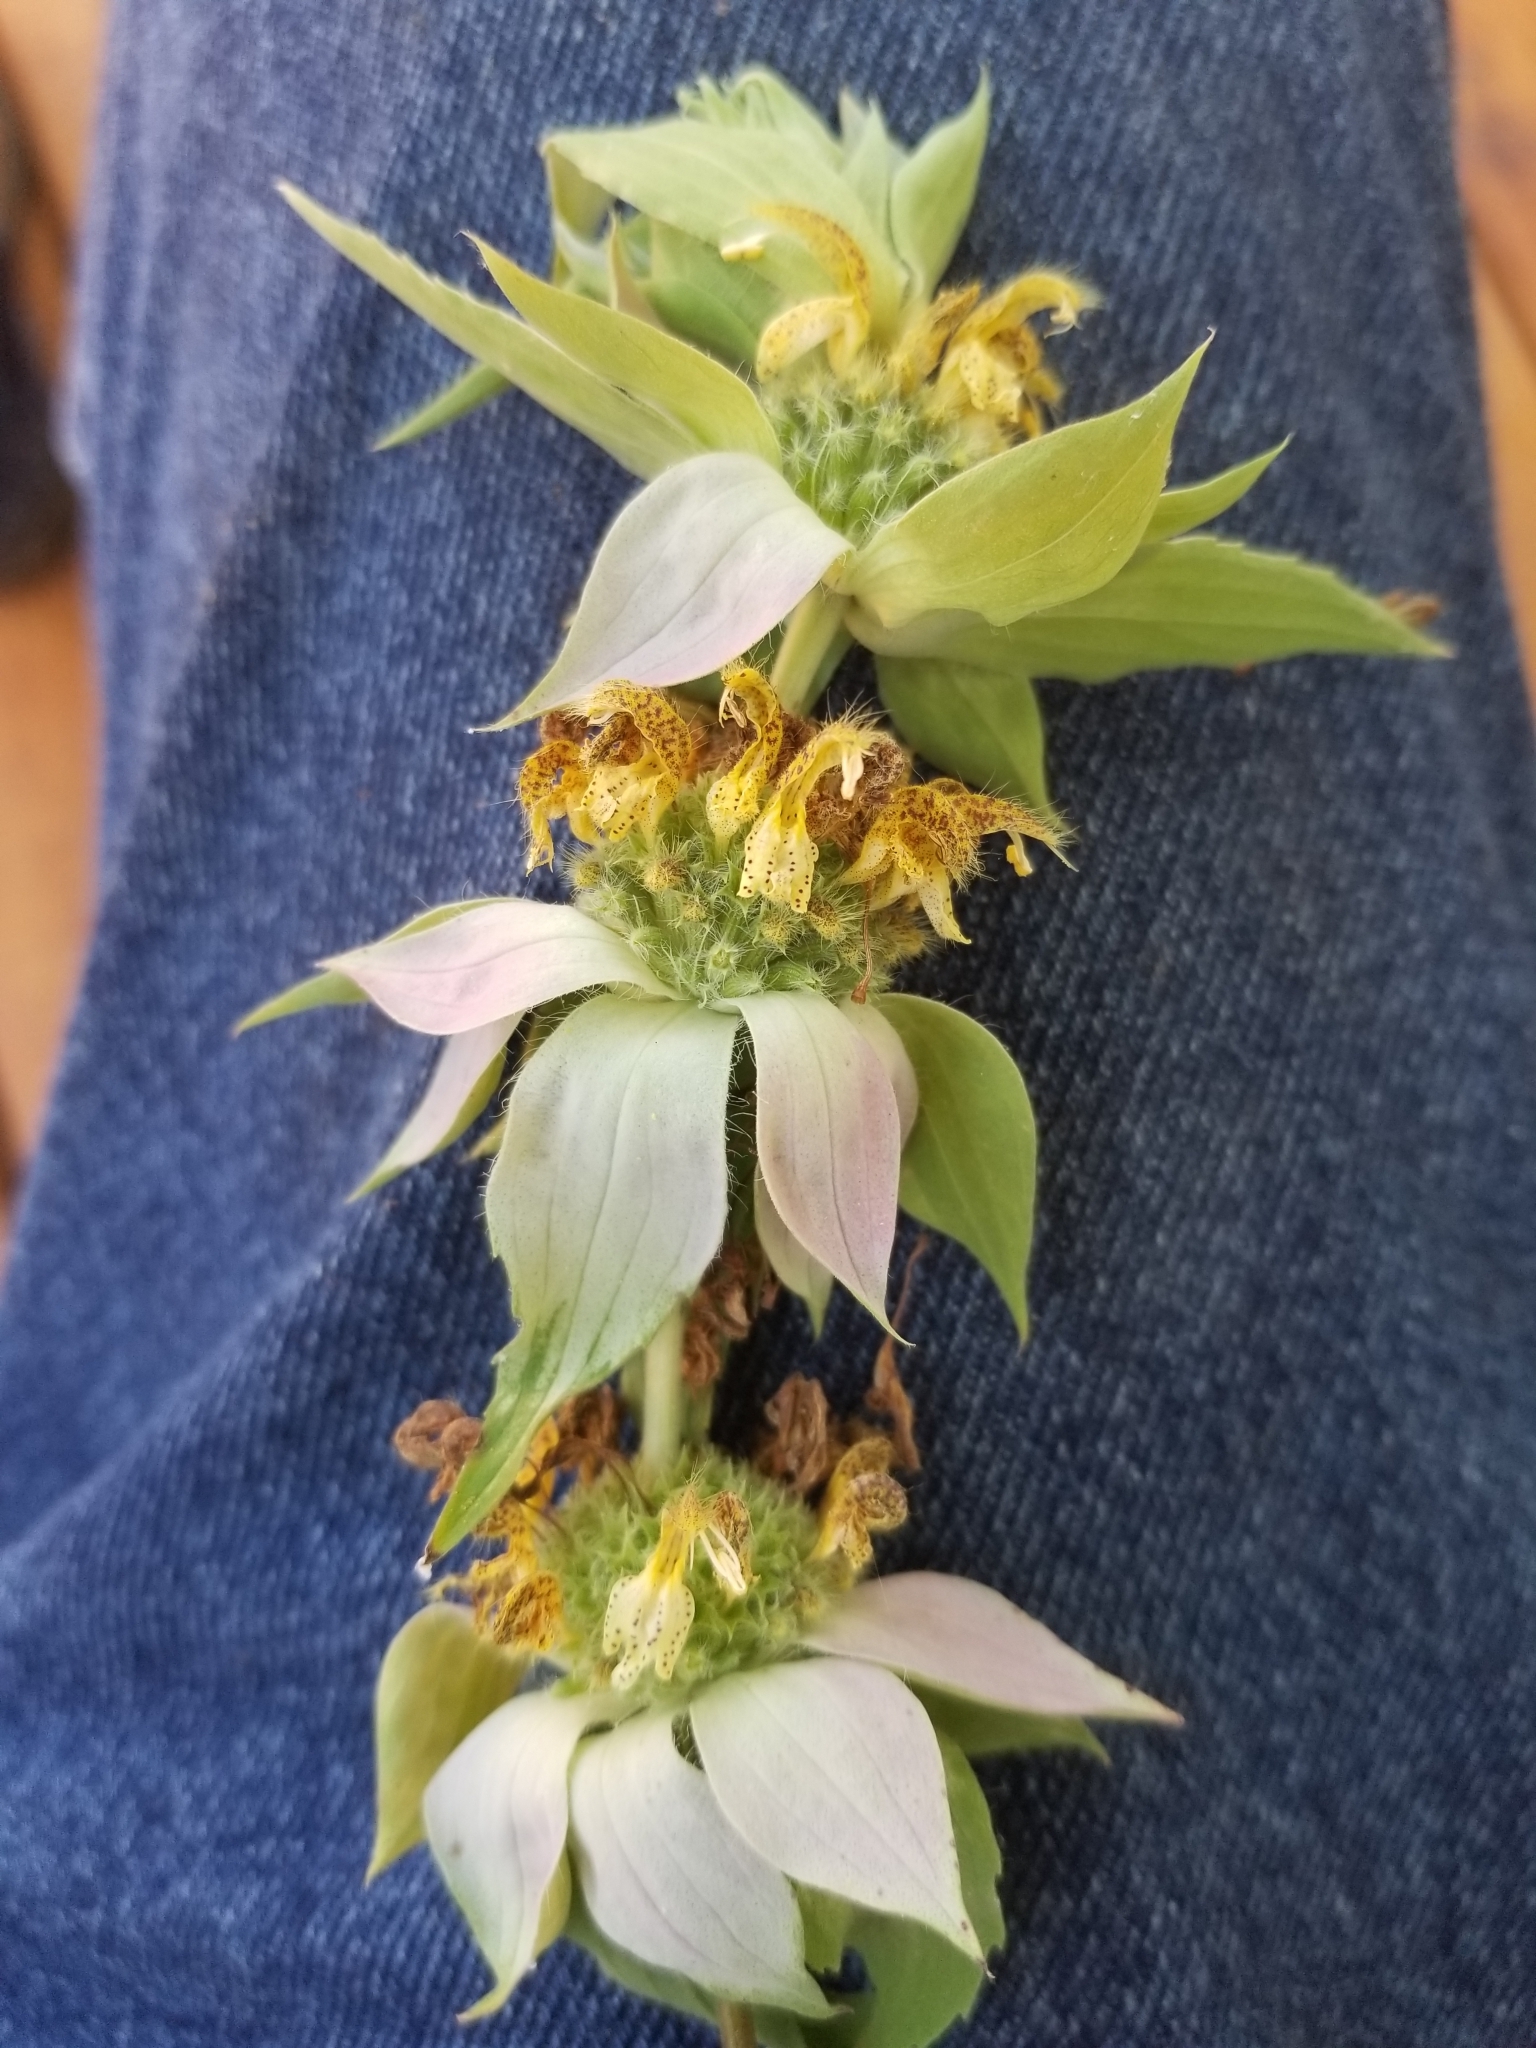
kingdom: Plantae
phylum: Tracheophyta
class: Magnoliopsida
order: Lamiales
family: Lamiaceae
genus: Monarda
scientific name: Monarda punctata
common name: Dotted monarda
